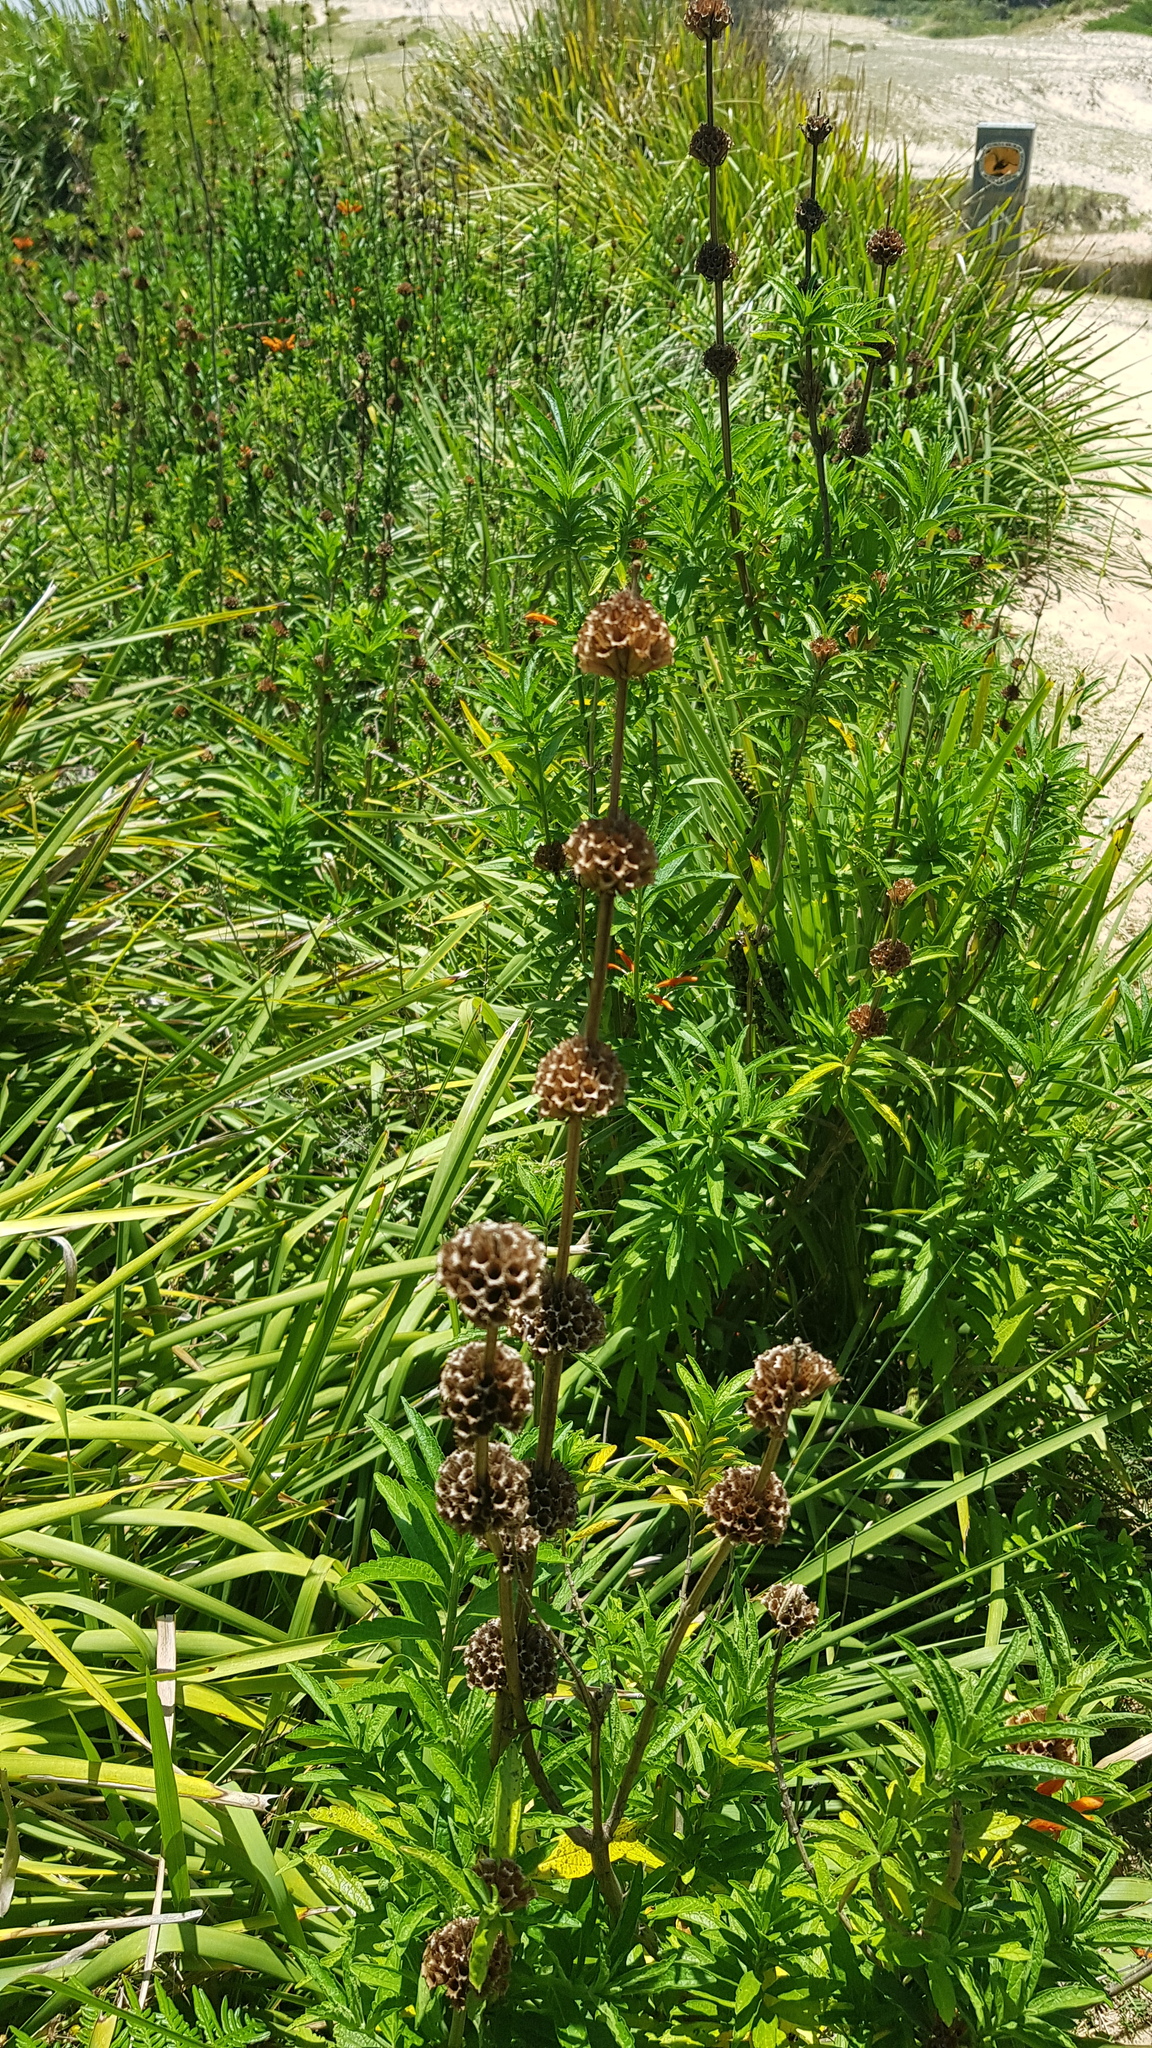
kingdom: Plantae
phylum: Tracheophyta
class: Magnoliopsida
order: Lamiales
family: Lamiaceae
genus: Leonotis
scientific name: Leonotis leonurus
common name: Lion's ear
